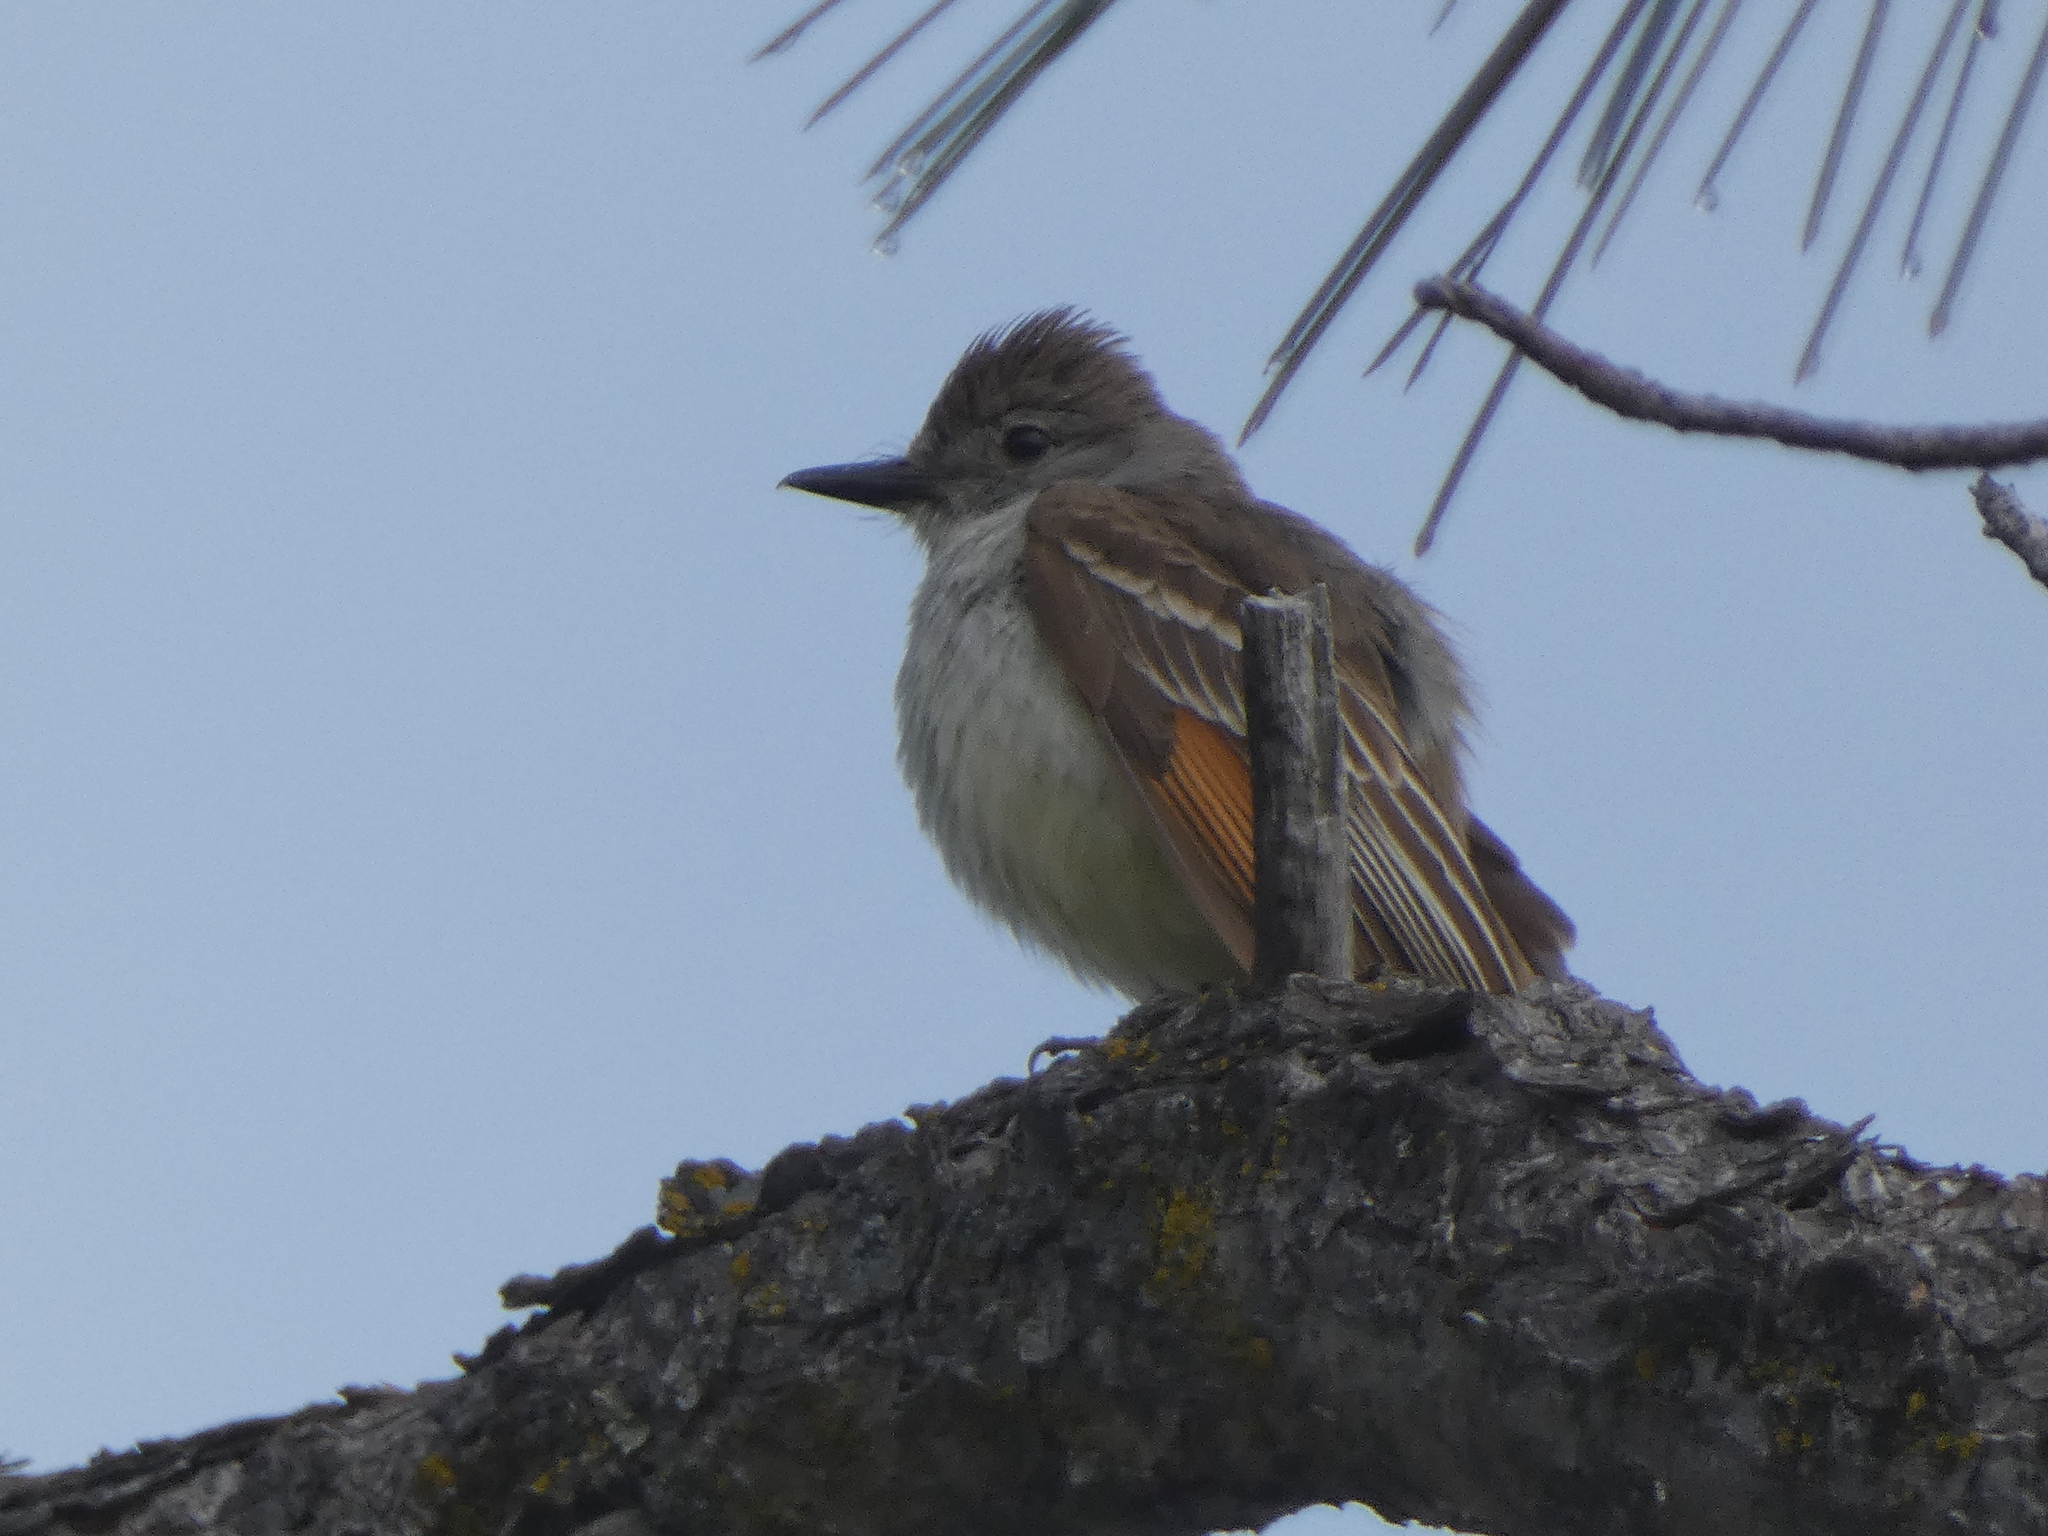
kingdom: Animalia
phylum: Chordata
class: Aves
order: Passeriformes
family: Tyrannidae
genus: Myiarchus
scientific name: Myiarchus cinerascens
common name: Ash-throated flycatcher
